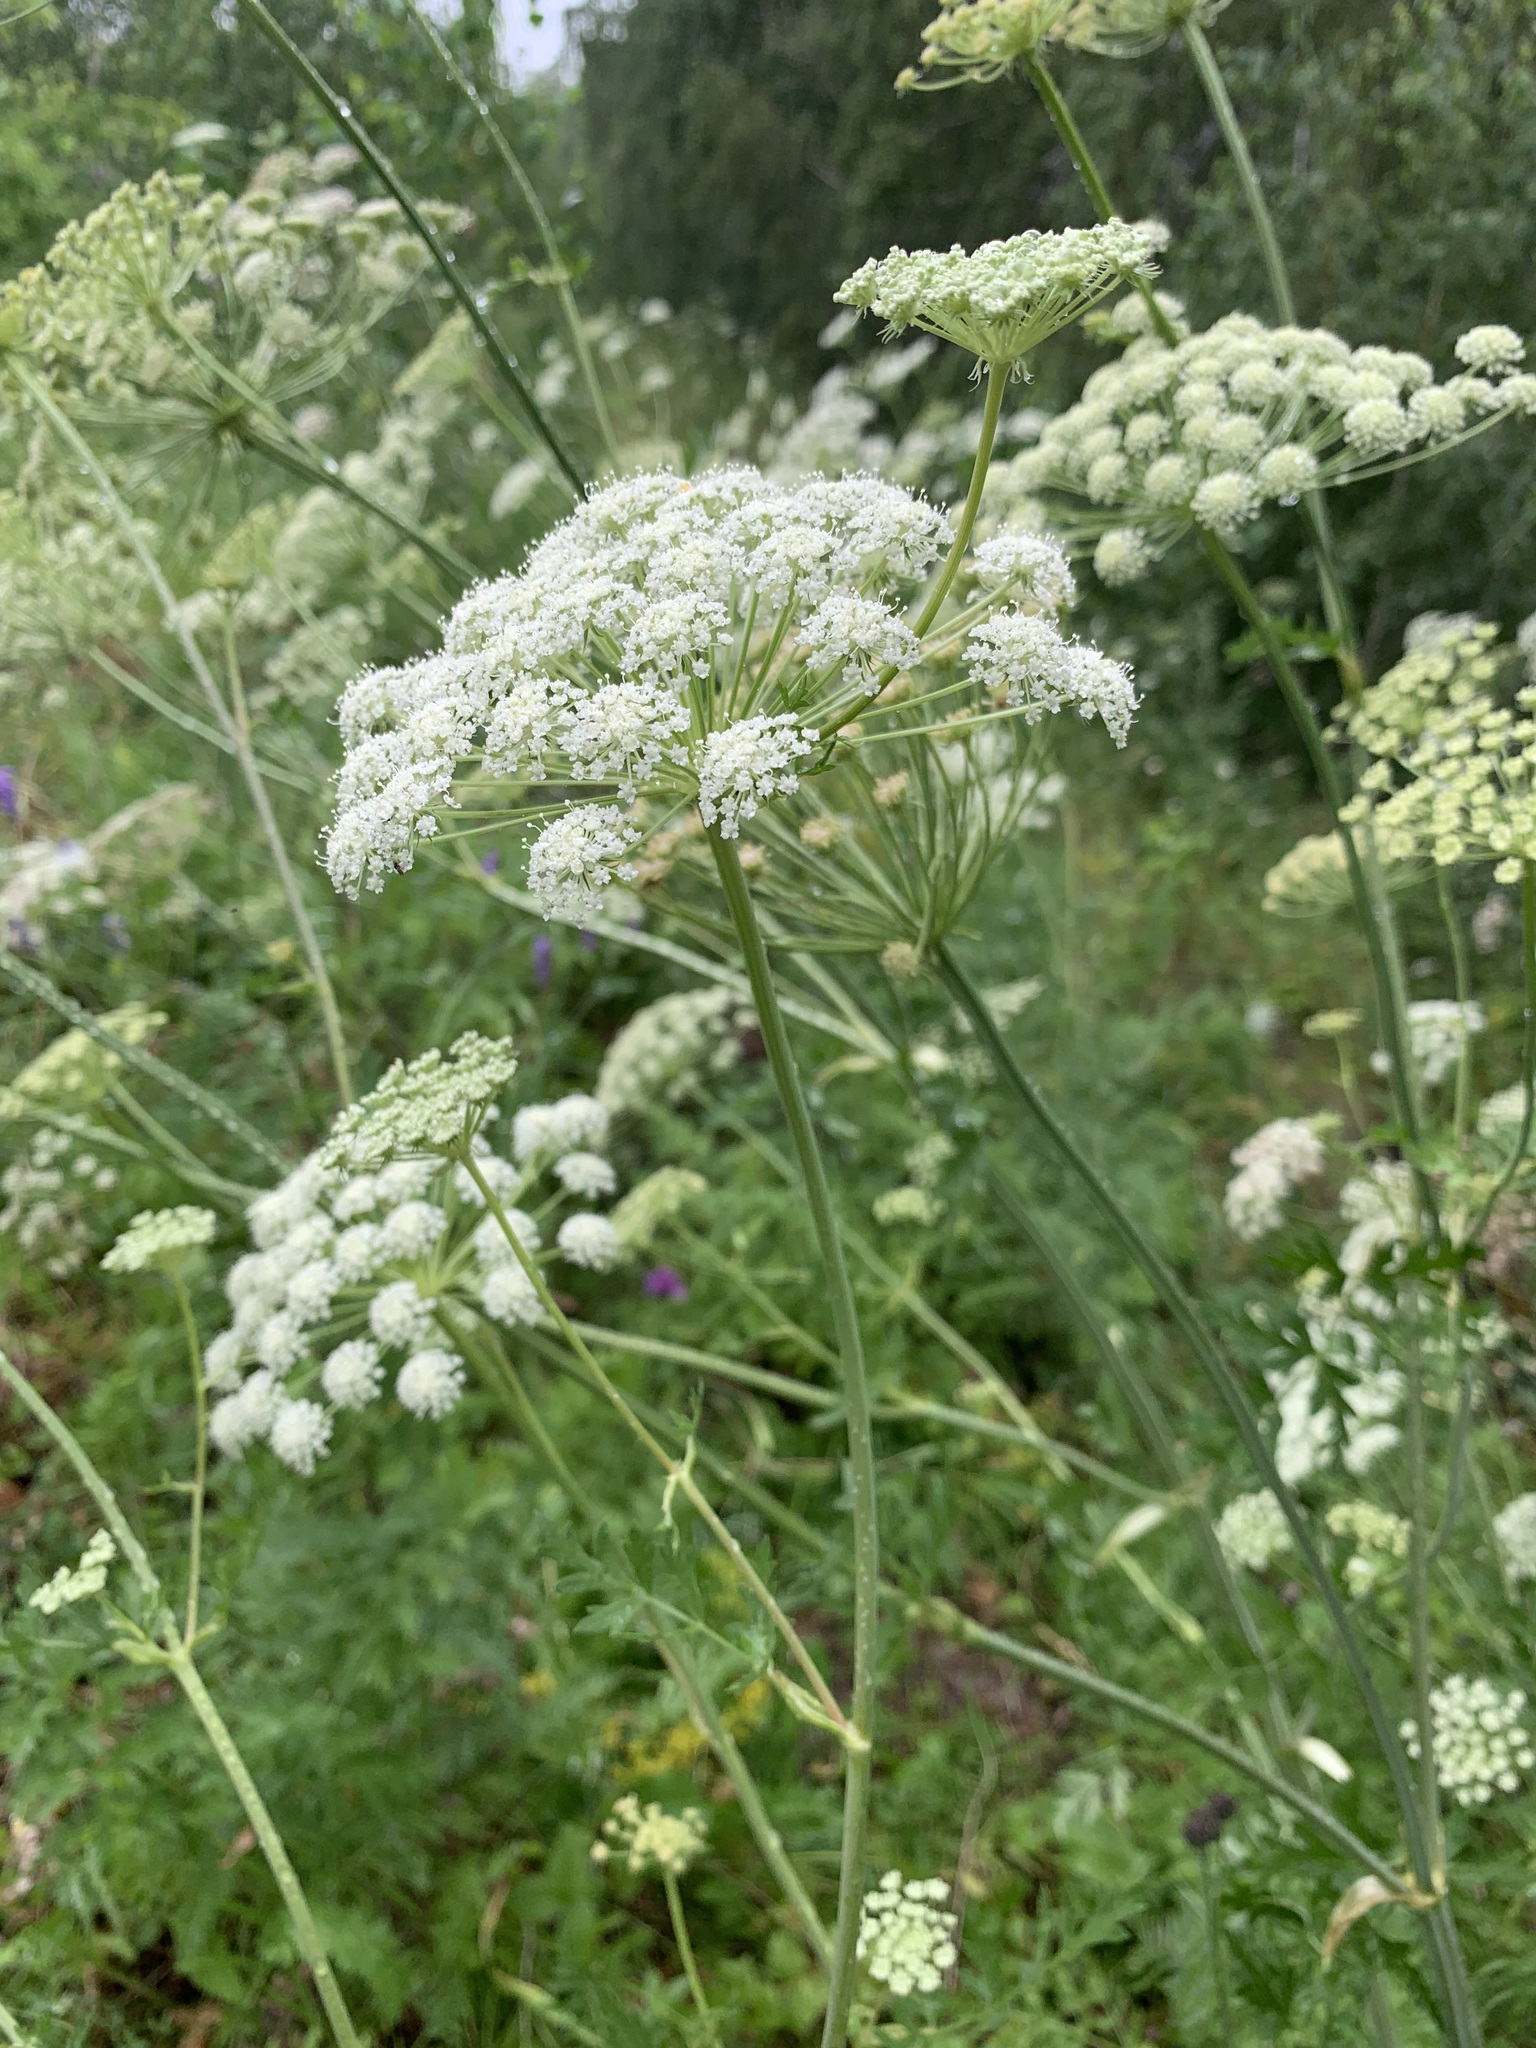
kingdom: Plantae
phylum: Tracheophyta
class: Magnoliopsida
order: Apiales
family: Apiaceae
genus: Seseli
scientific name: Seseli libanotis
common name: Mooncarrot
